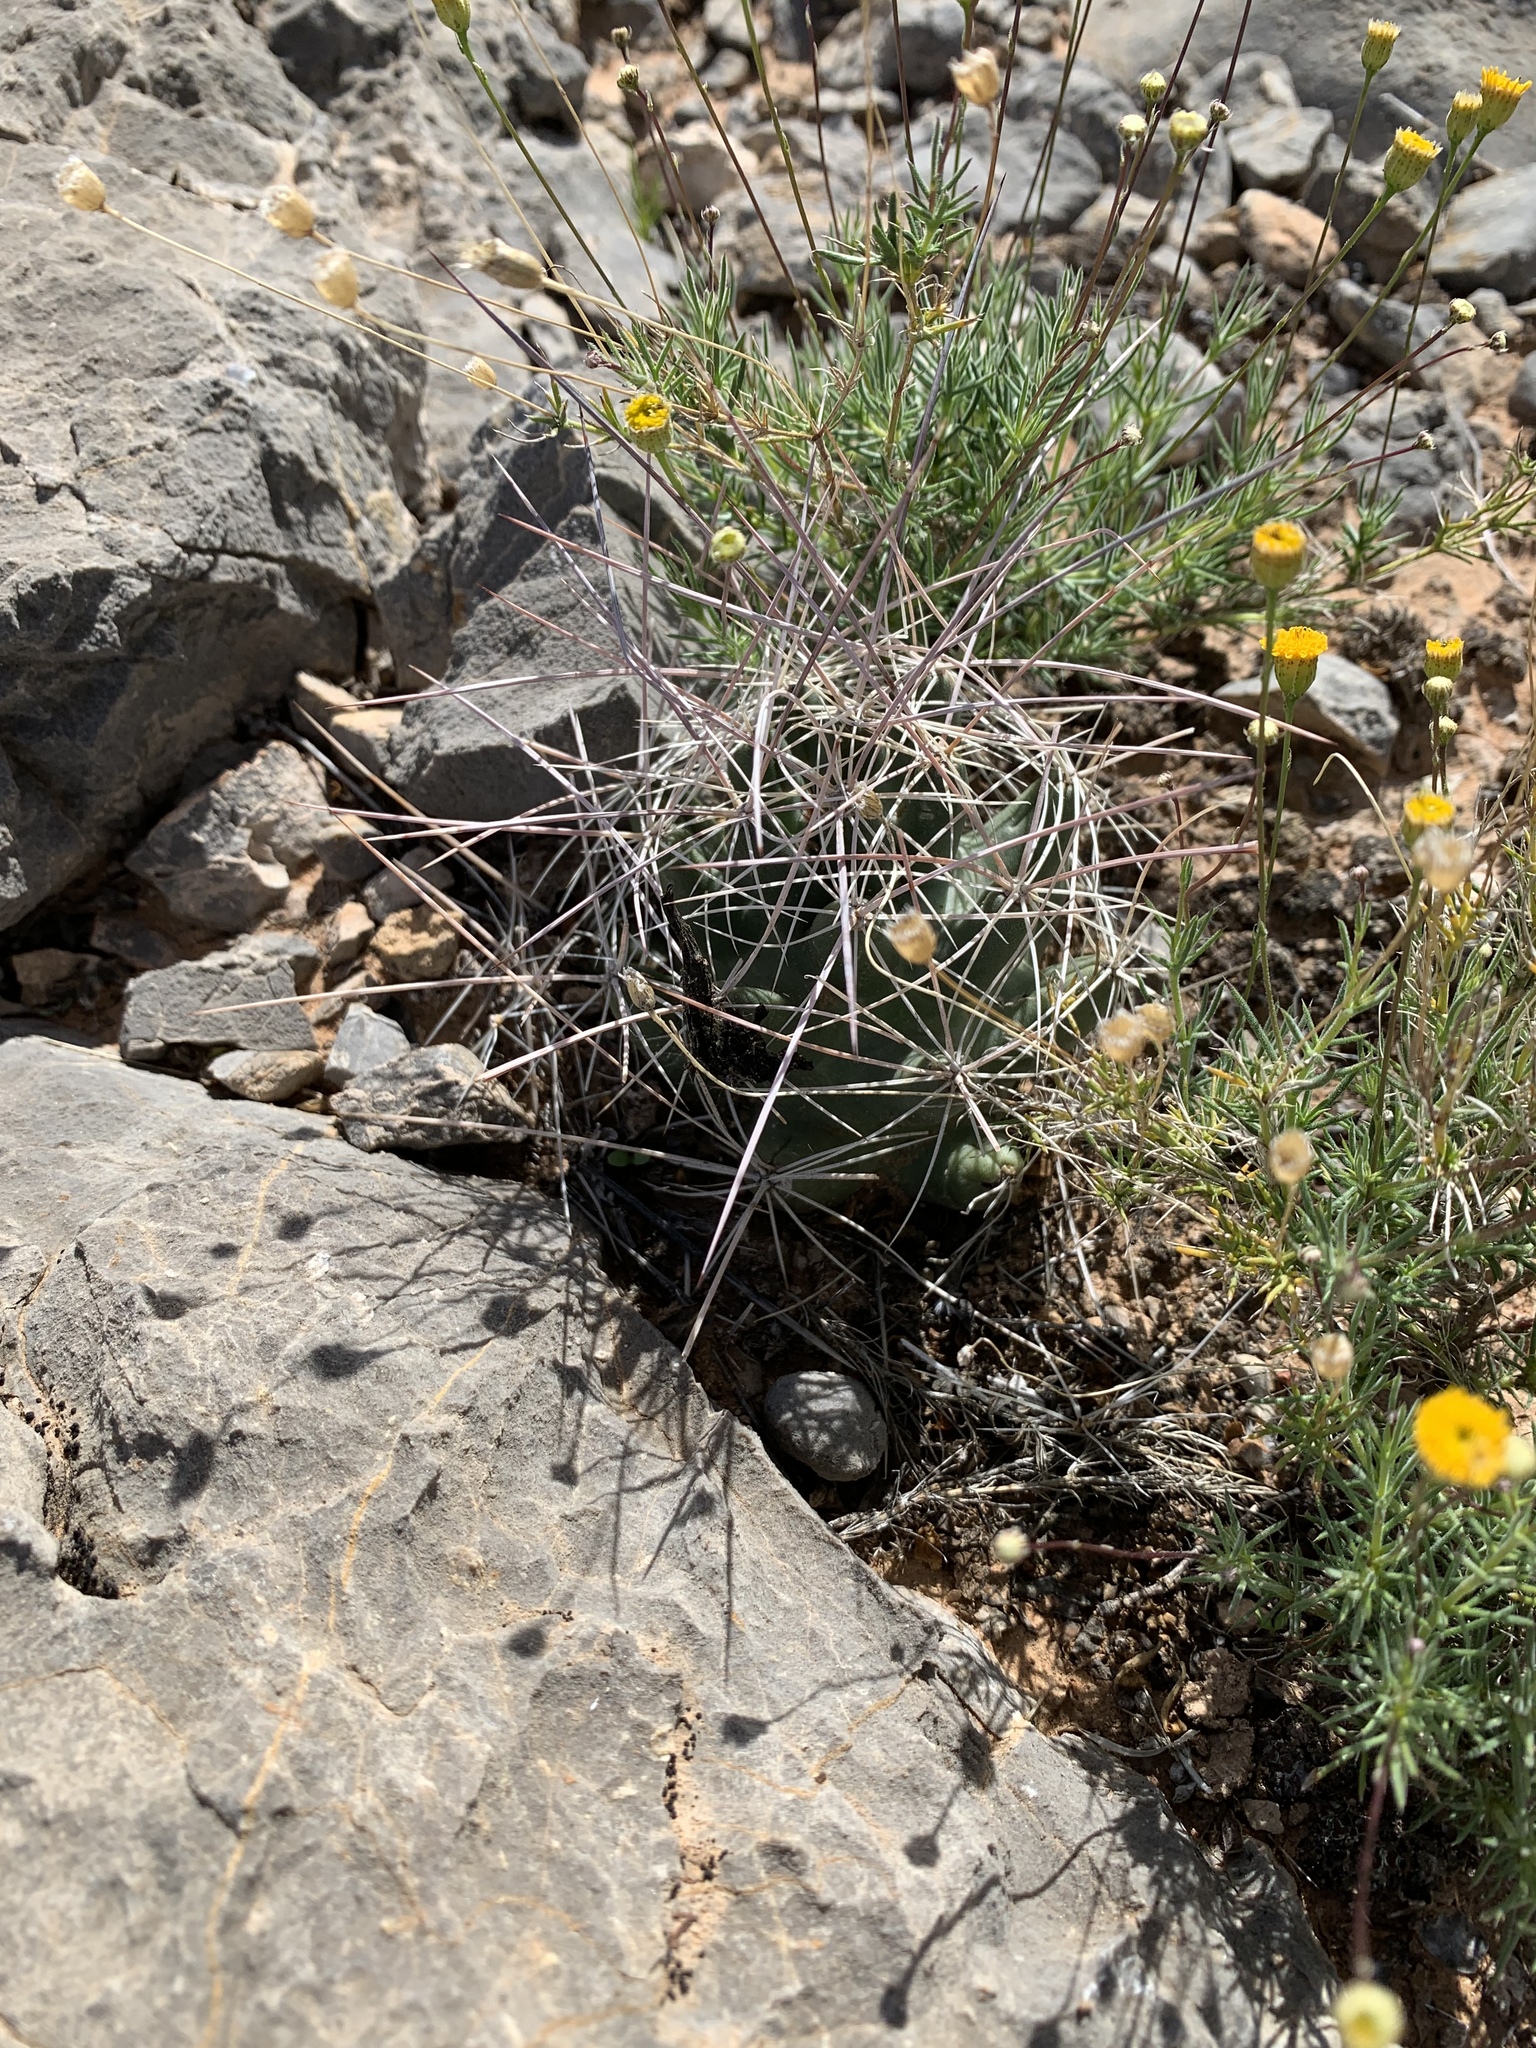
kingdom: Plantae
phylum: Tracheophyta
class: Magnoliopsida
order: Caryophyllales
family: Cactaceae
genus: Coryphantha
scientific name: Coryphantha macromeris
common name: Nipple beehive cactus
